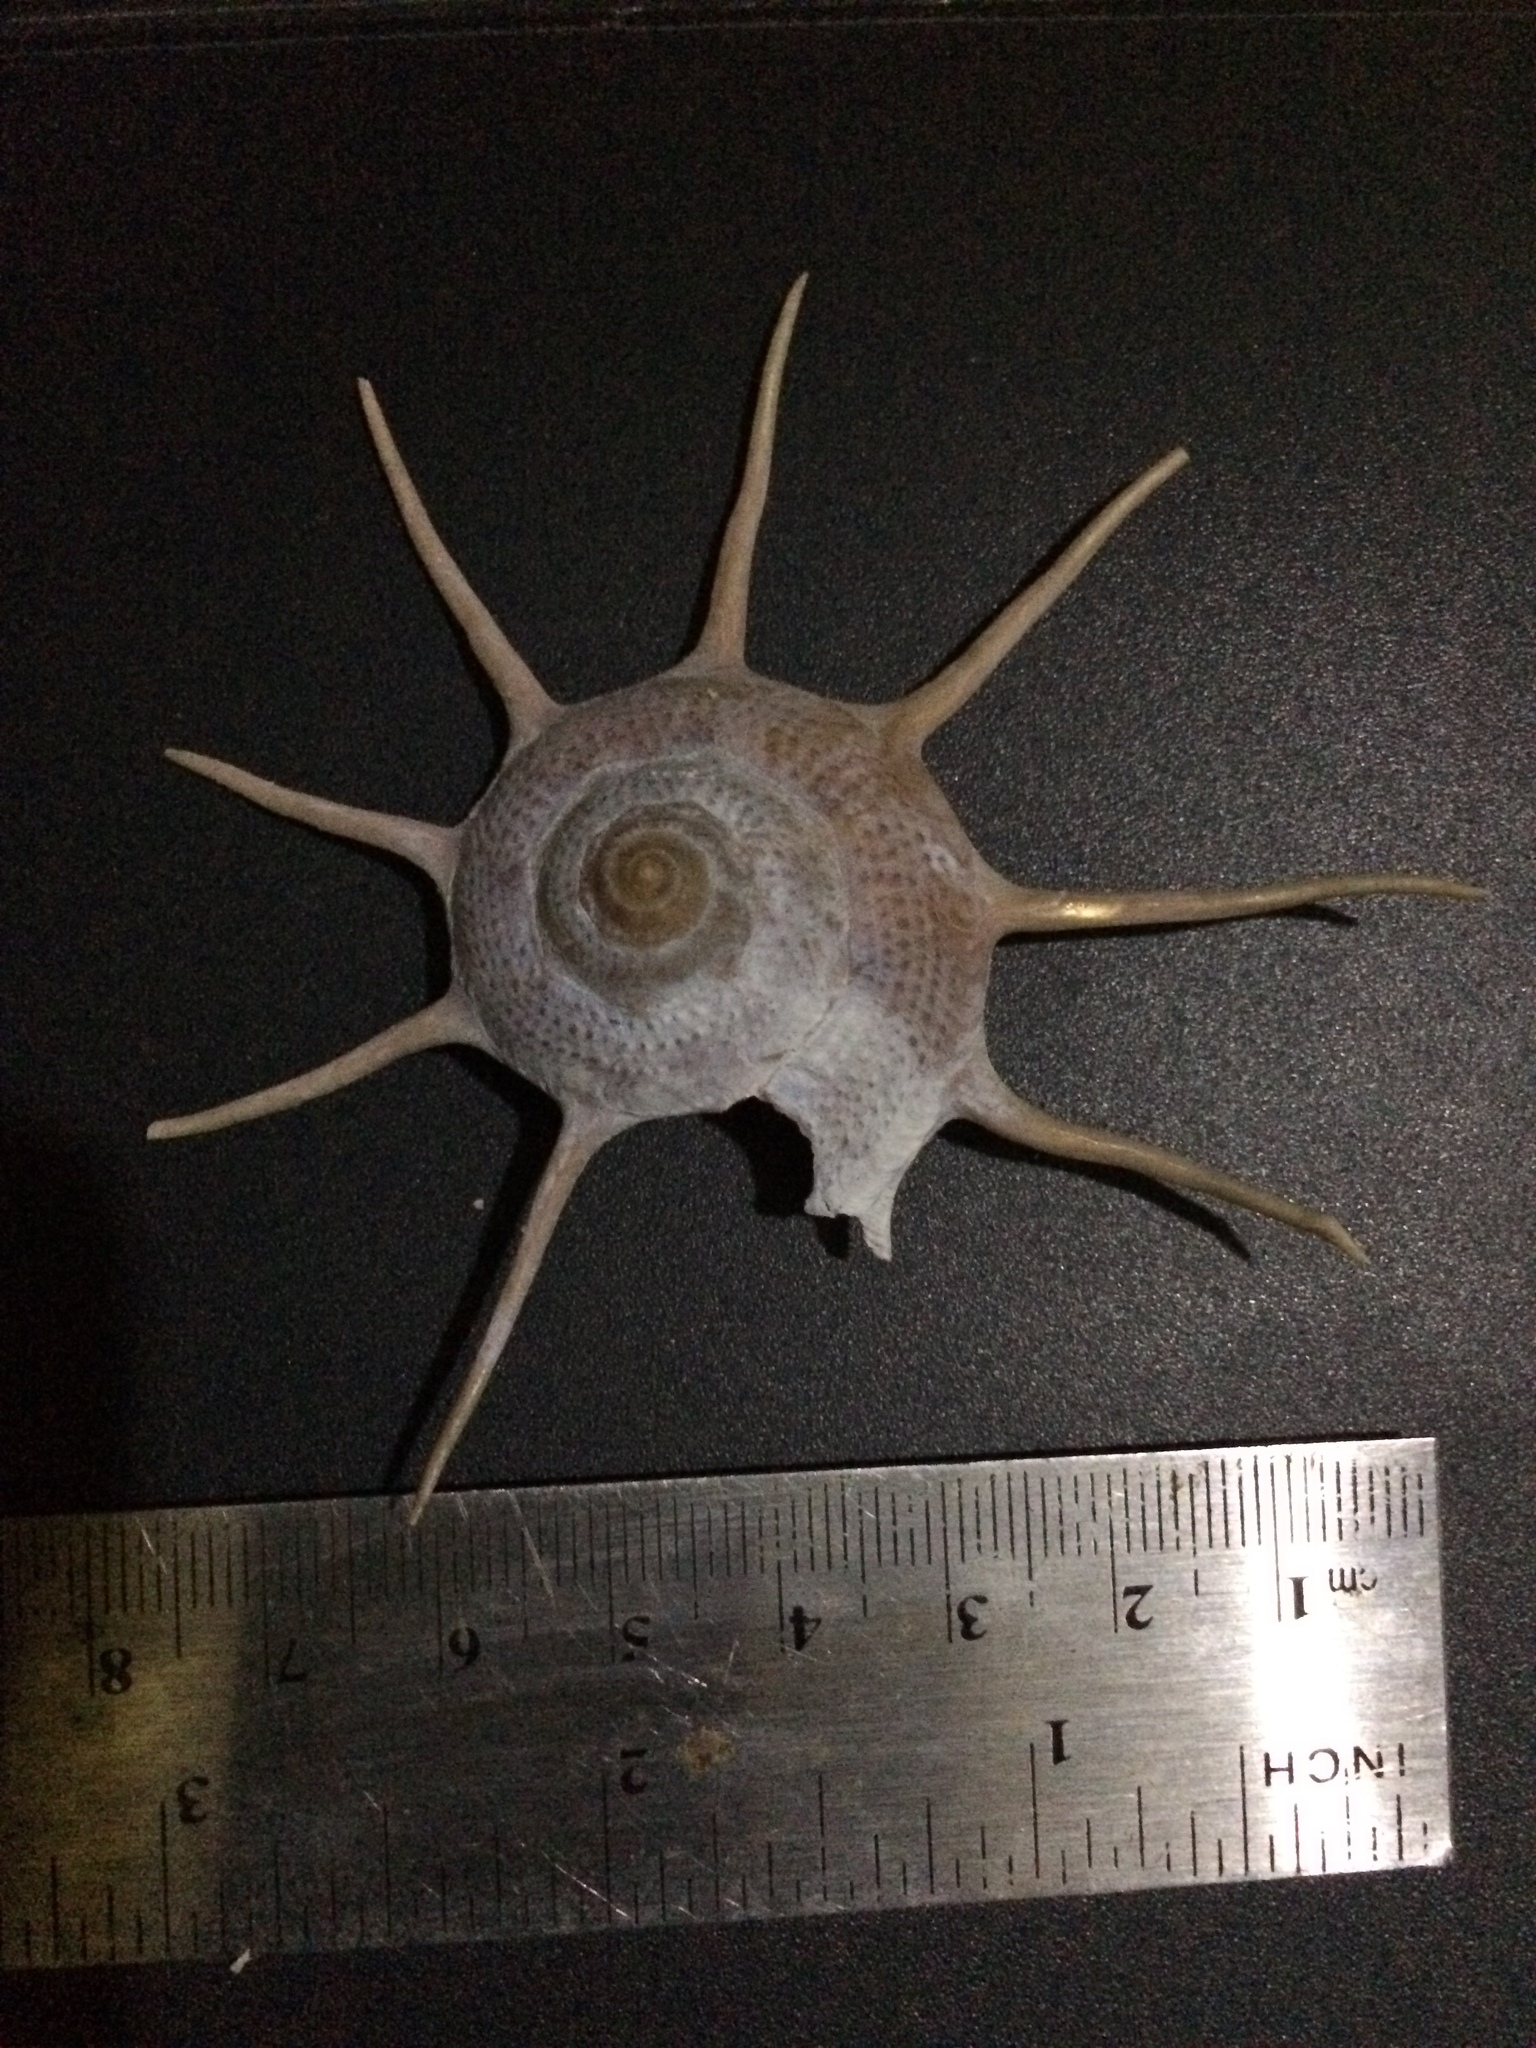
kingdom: Animalia
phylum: Mollusca
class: Gastropoda
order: Trochida
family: Turbinidae
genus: Guildfordia
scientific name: Guildfordia yoka
